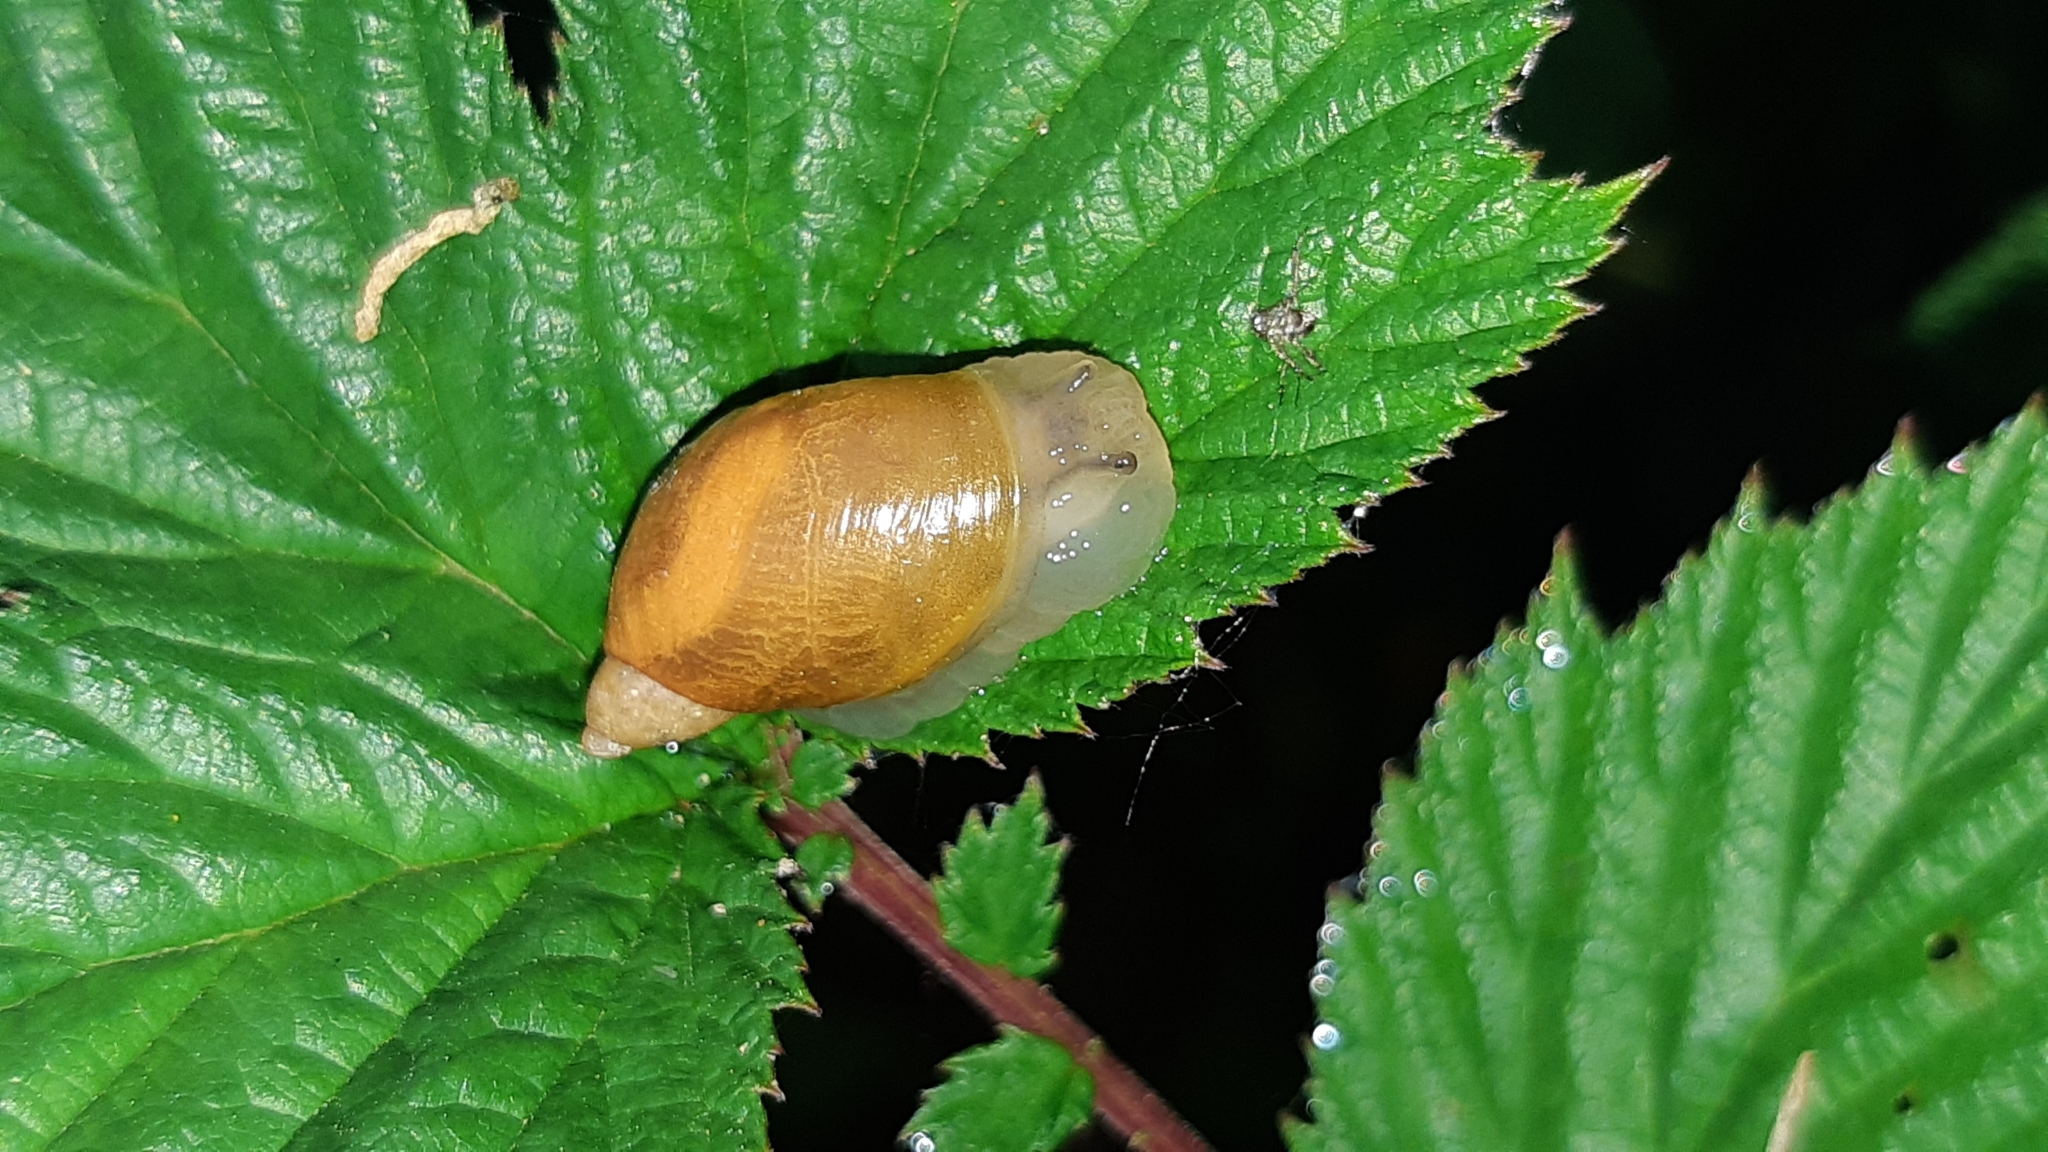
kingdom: Animalia
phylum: Mollusca
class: Gastropoda
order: Stylommatophora
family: Succineidae
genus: Succinea
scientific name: Succinea putris
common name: European ambersnail
